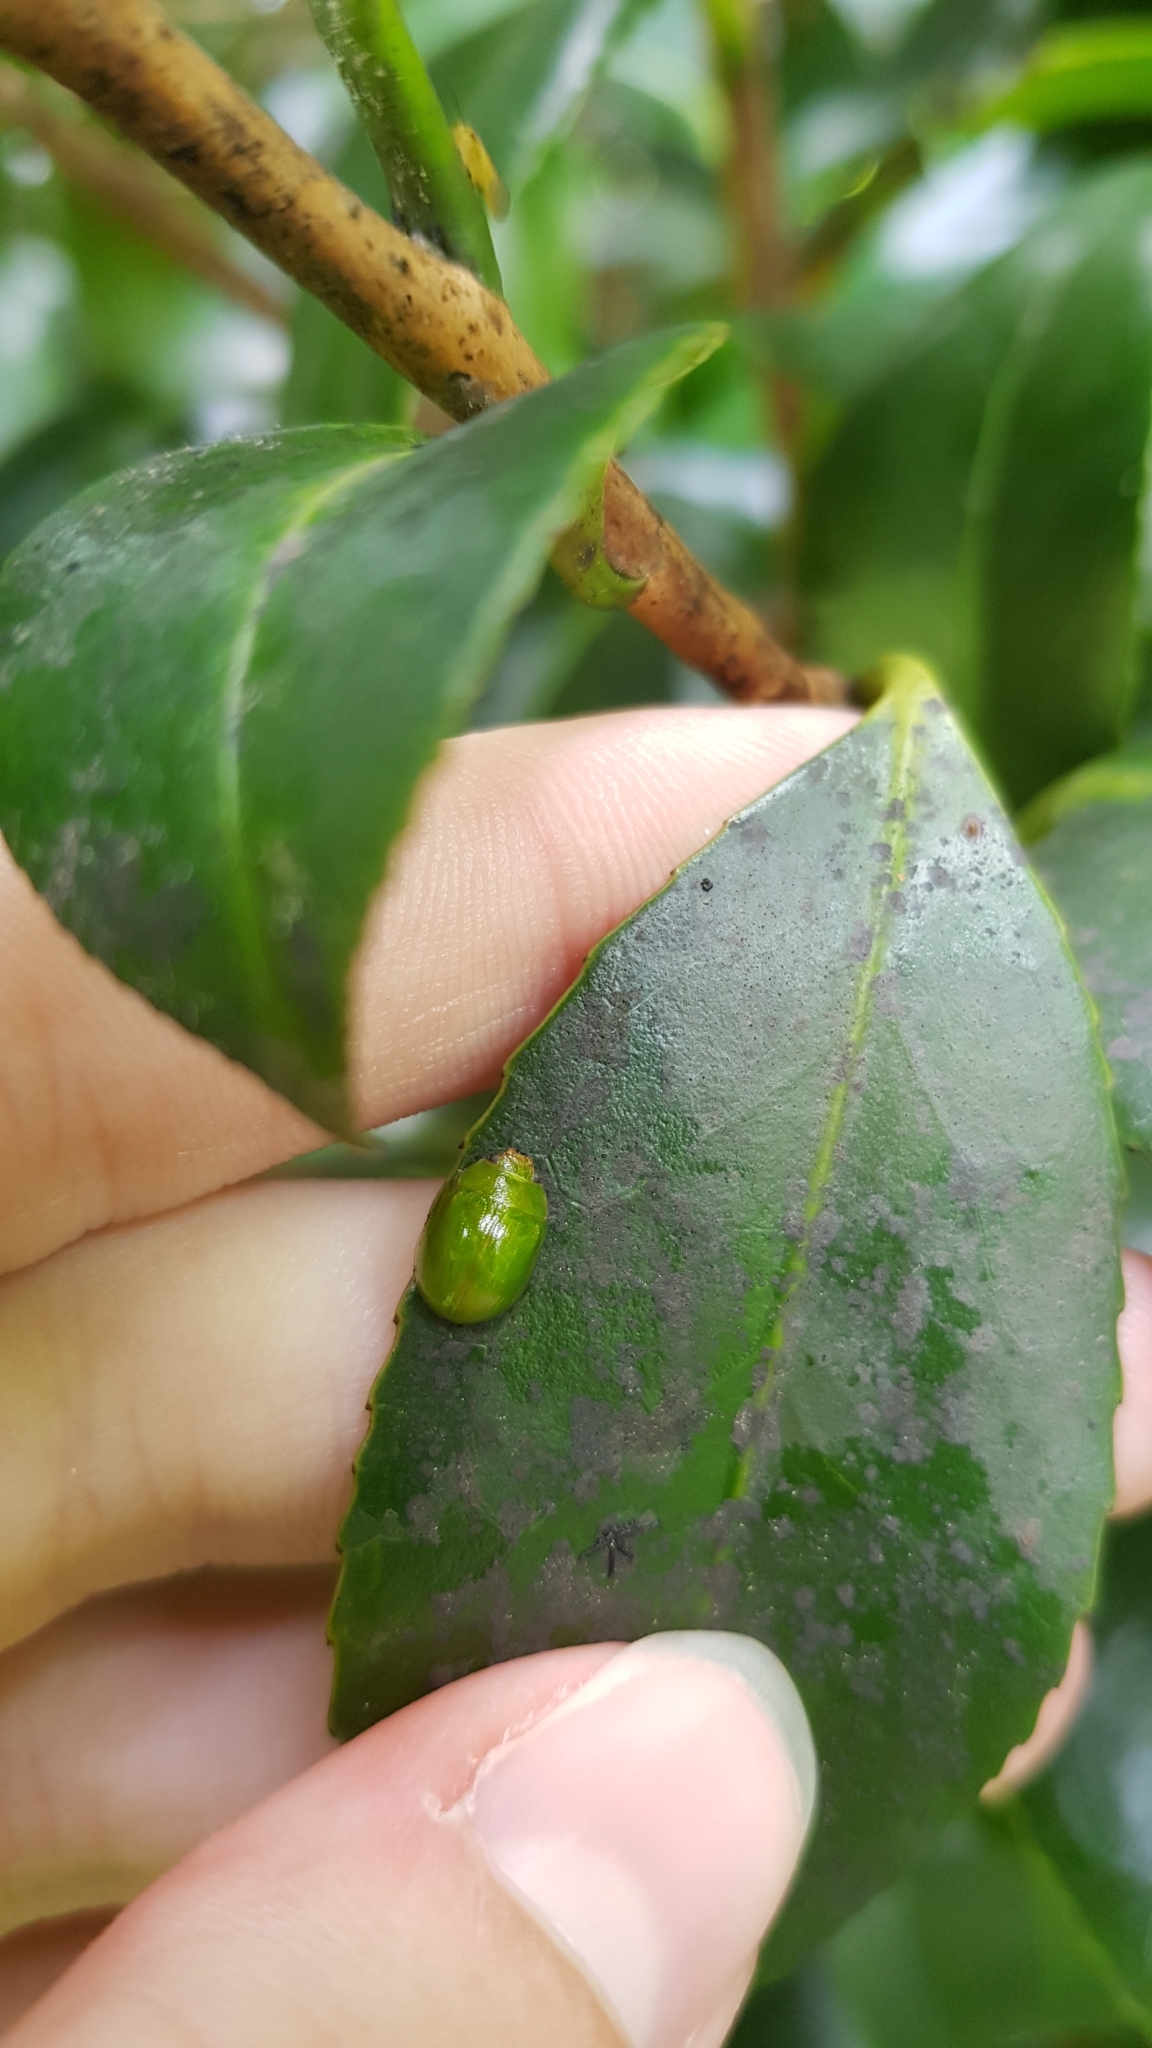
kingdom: Animalia
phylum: Arthropoda
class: Insecta
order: Coleoptera
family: Chrysomelidae
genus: Paropsides
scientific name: Paropsides
